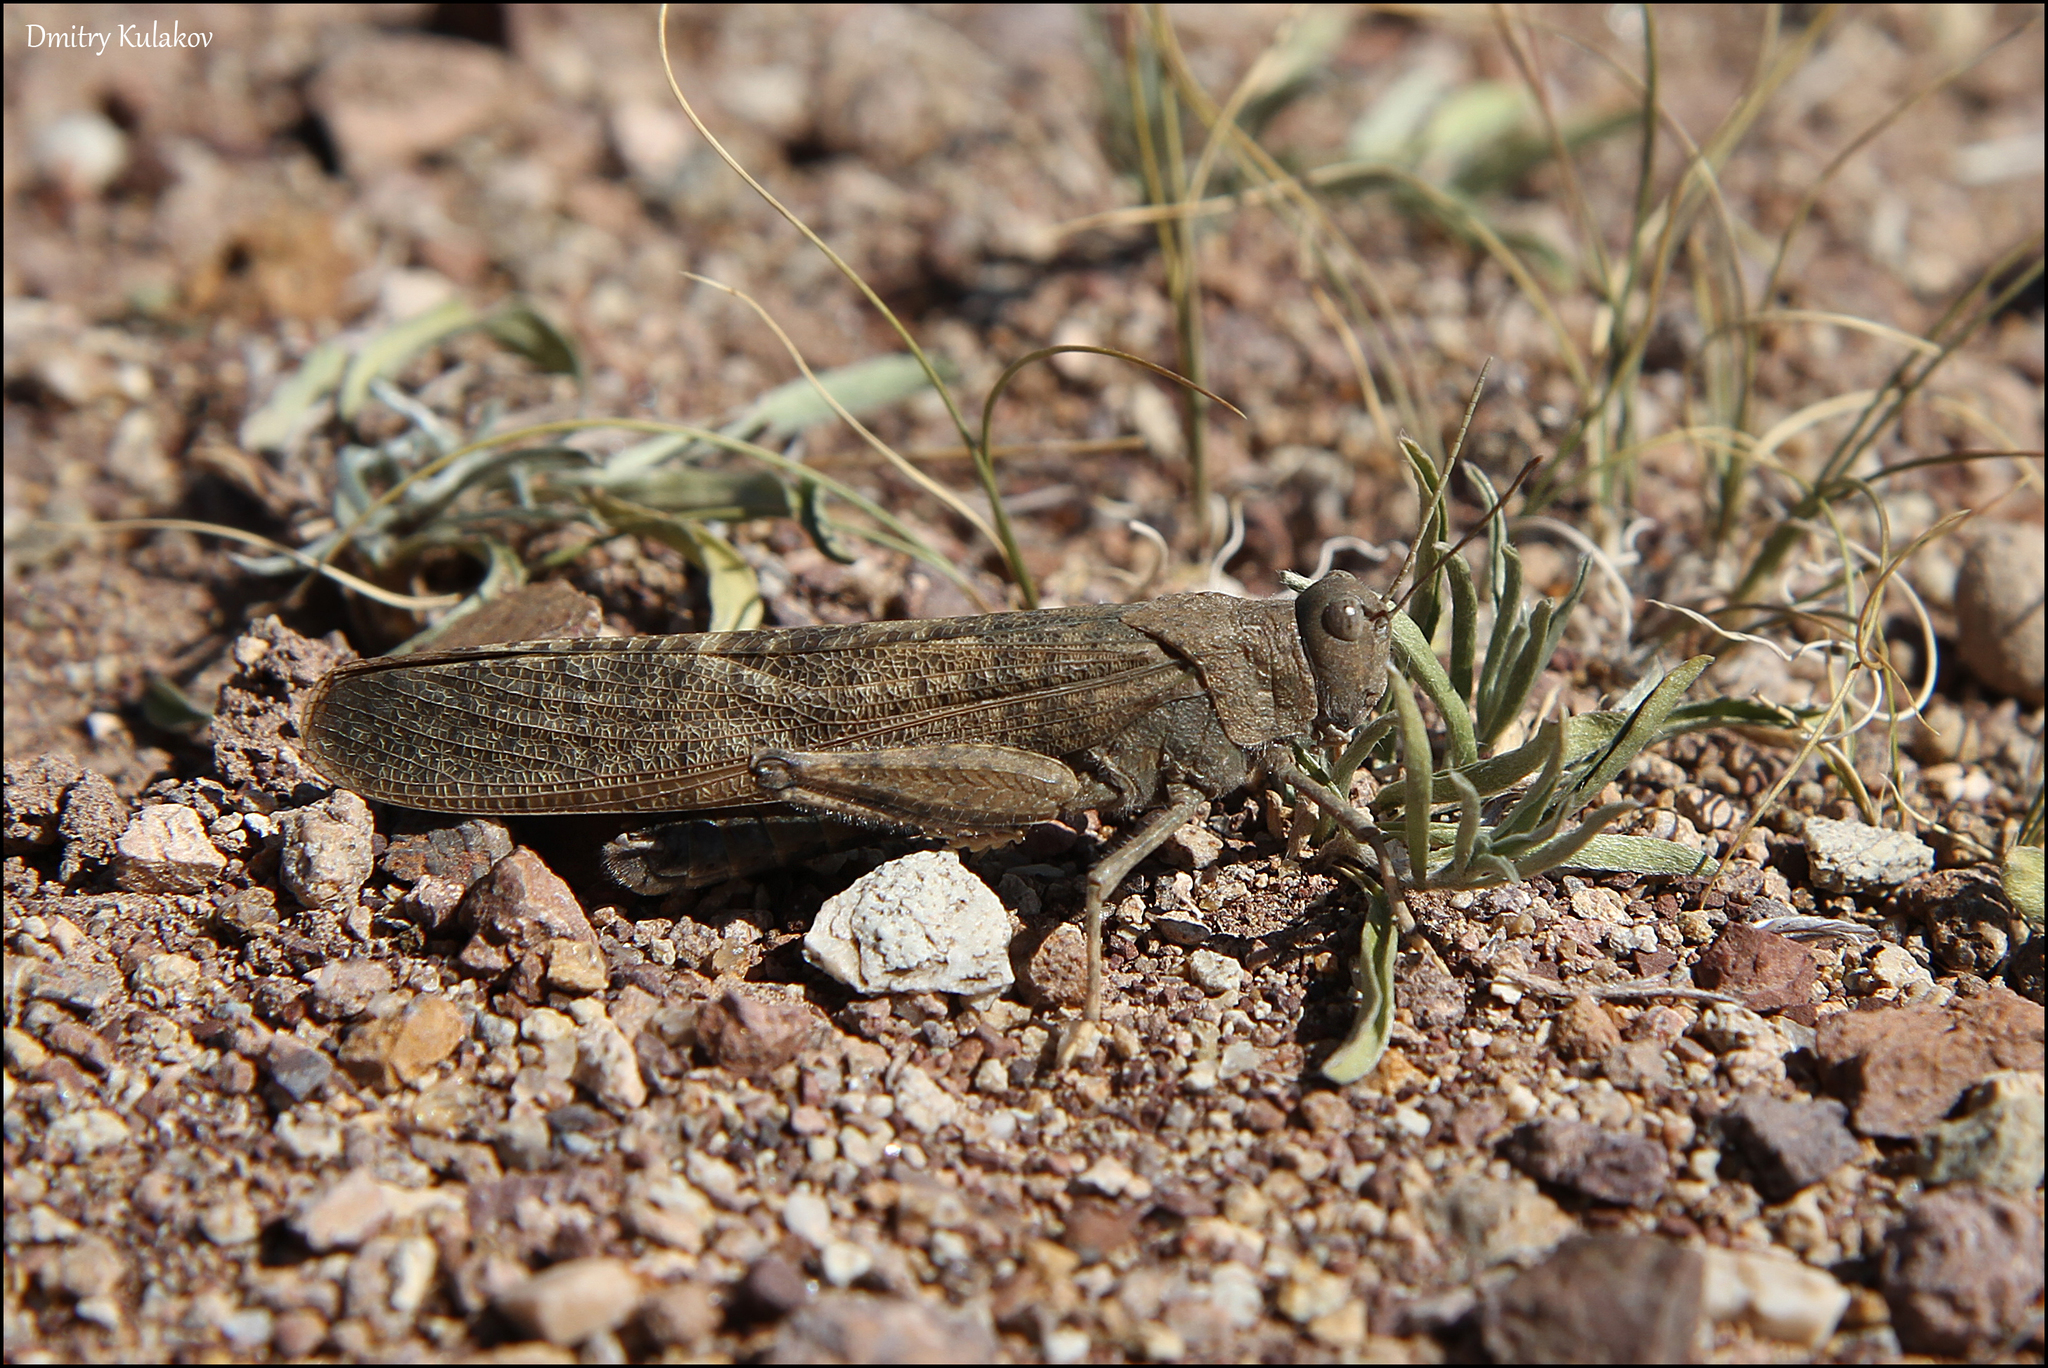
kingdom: Animalia
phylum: Arthropoda
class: Insecta
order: Orthoptera
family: Acrididae
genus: Bryodema
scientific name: Bryodema gebleri
